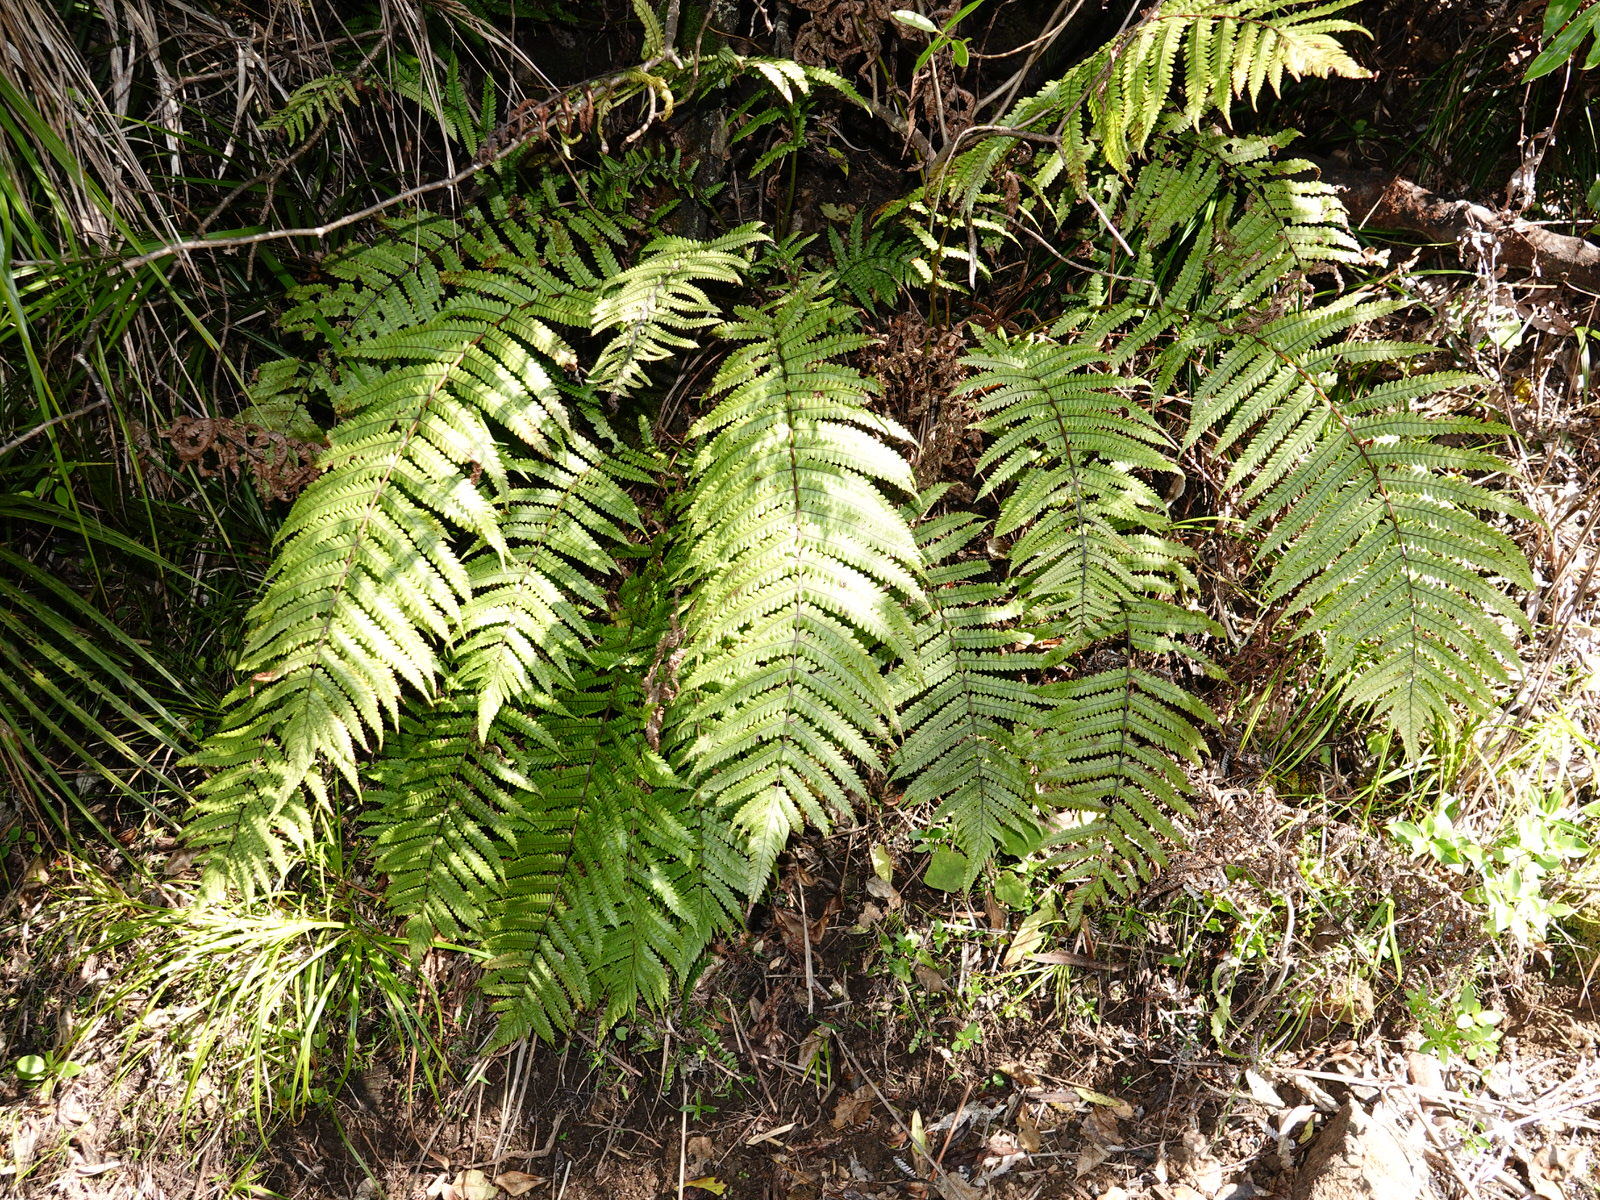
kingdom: Plantae
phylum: Tracheophyta
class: Polypodiopsida
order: Polypodiales
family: Thelypteridaceae
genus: Pakau
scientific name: Pakau pennigera
